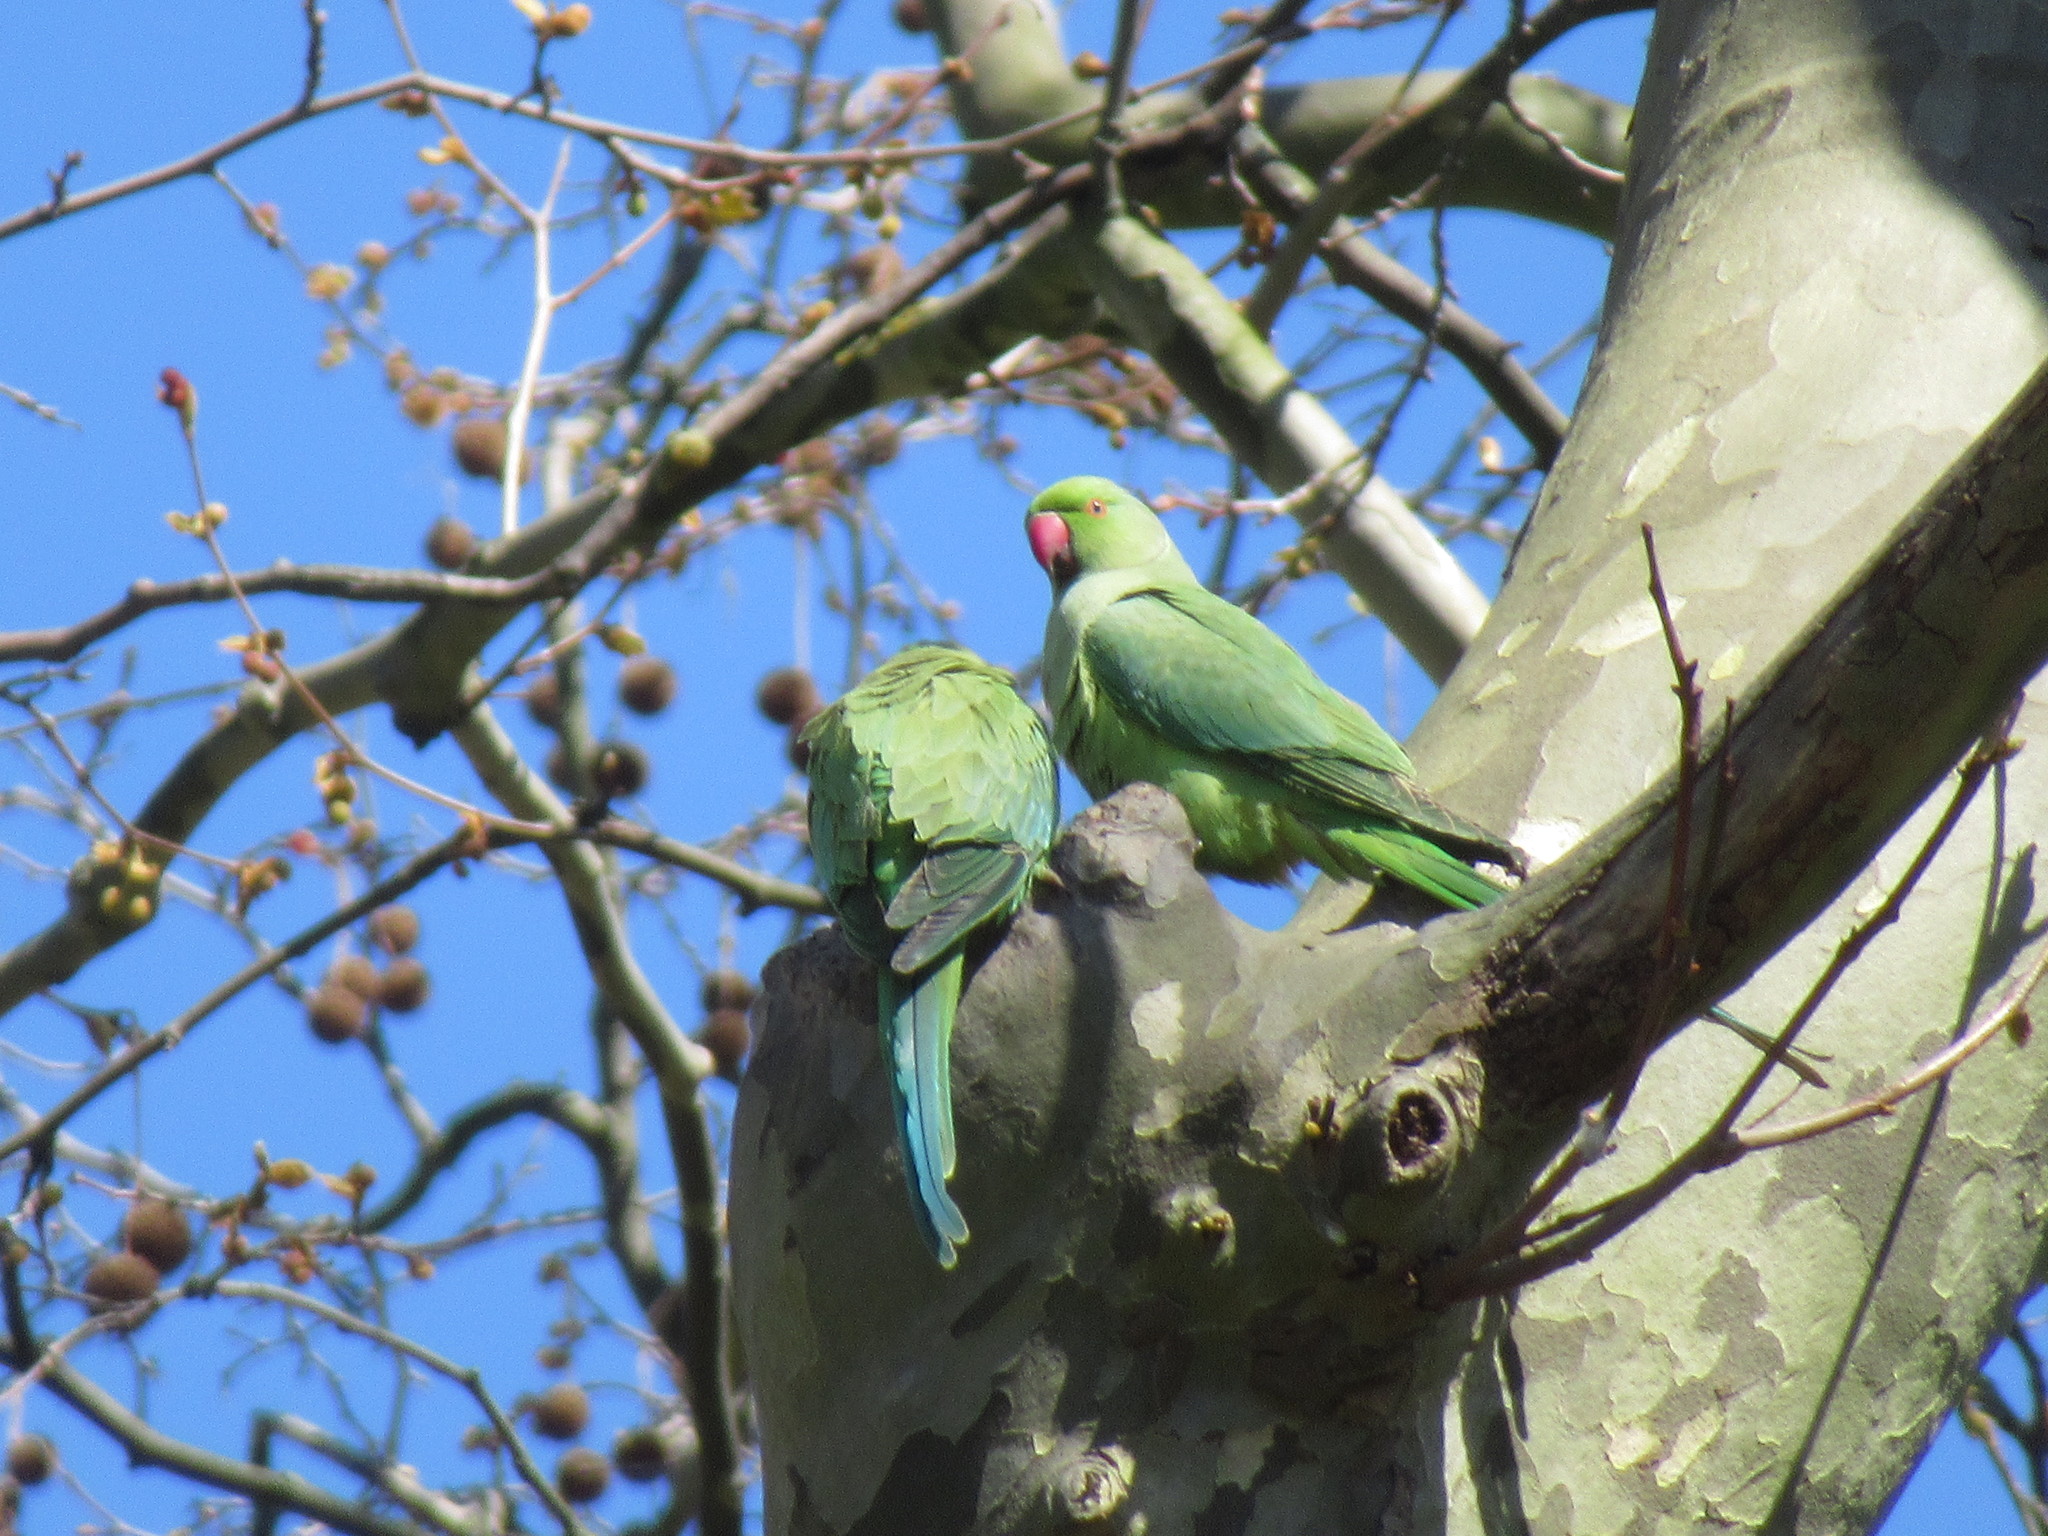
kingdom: Animalia
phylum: Chordata
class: Aves
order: Psittaciformes
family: Psittacidae
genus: Psittacula
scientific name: Psittacula krameri
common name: Rose-ringed parakeet
